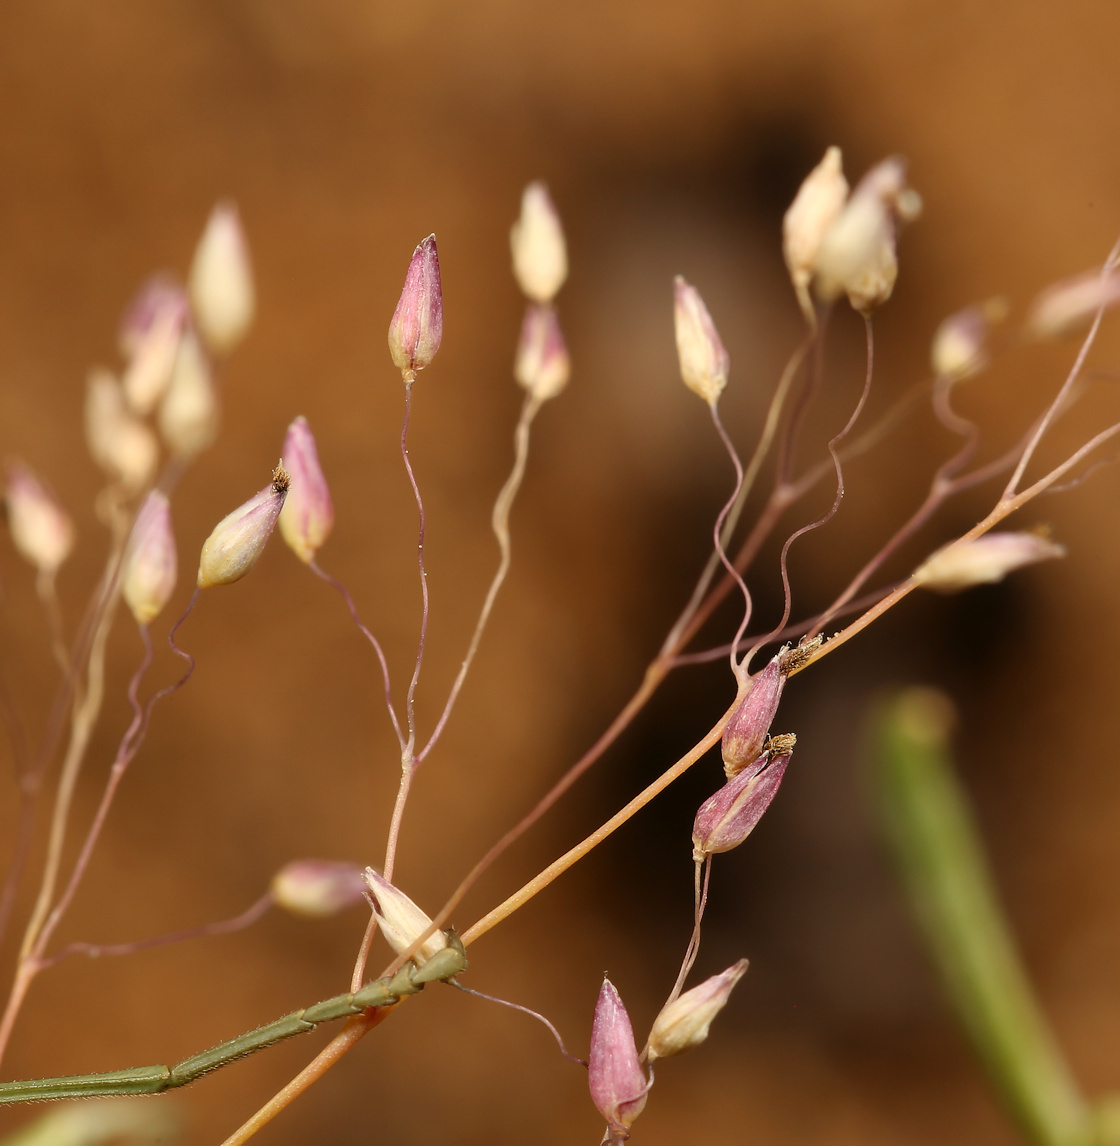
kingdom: Plantae
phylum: Tracheophyta
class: Liliopsida
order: Poales
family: Poaceae
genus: Tricholaena
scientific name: Tricholaena monachne
